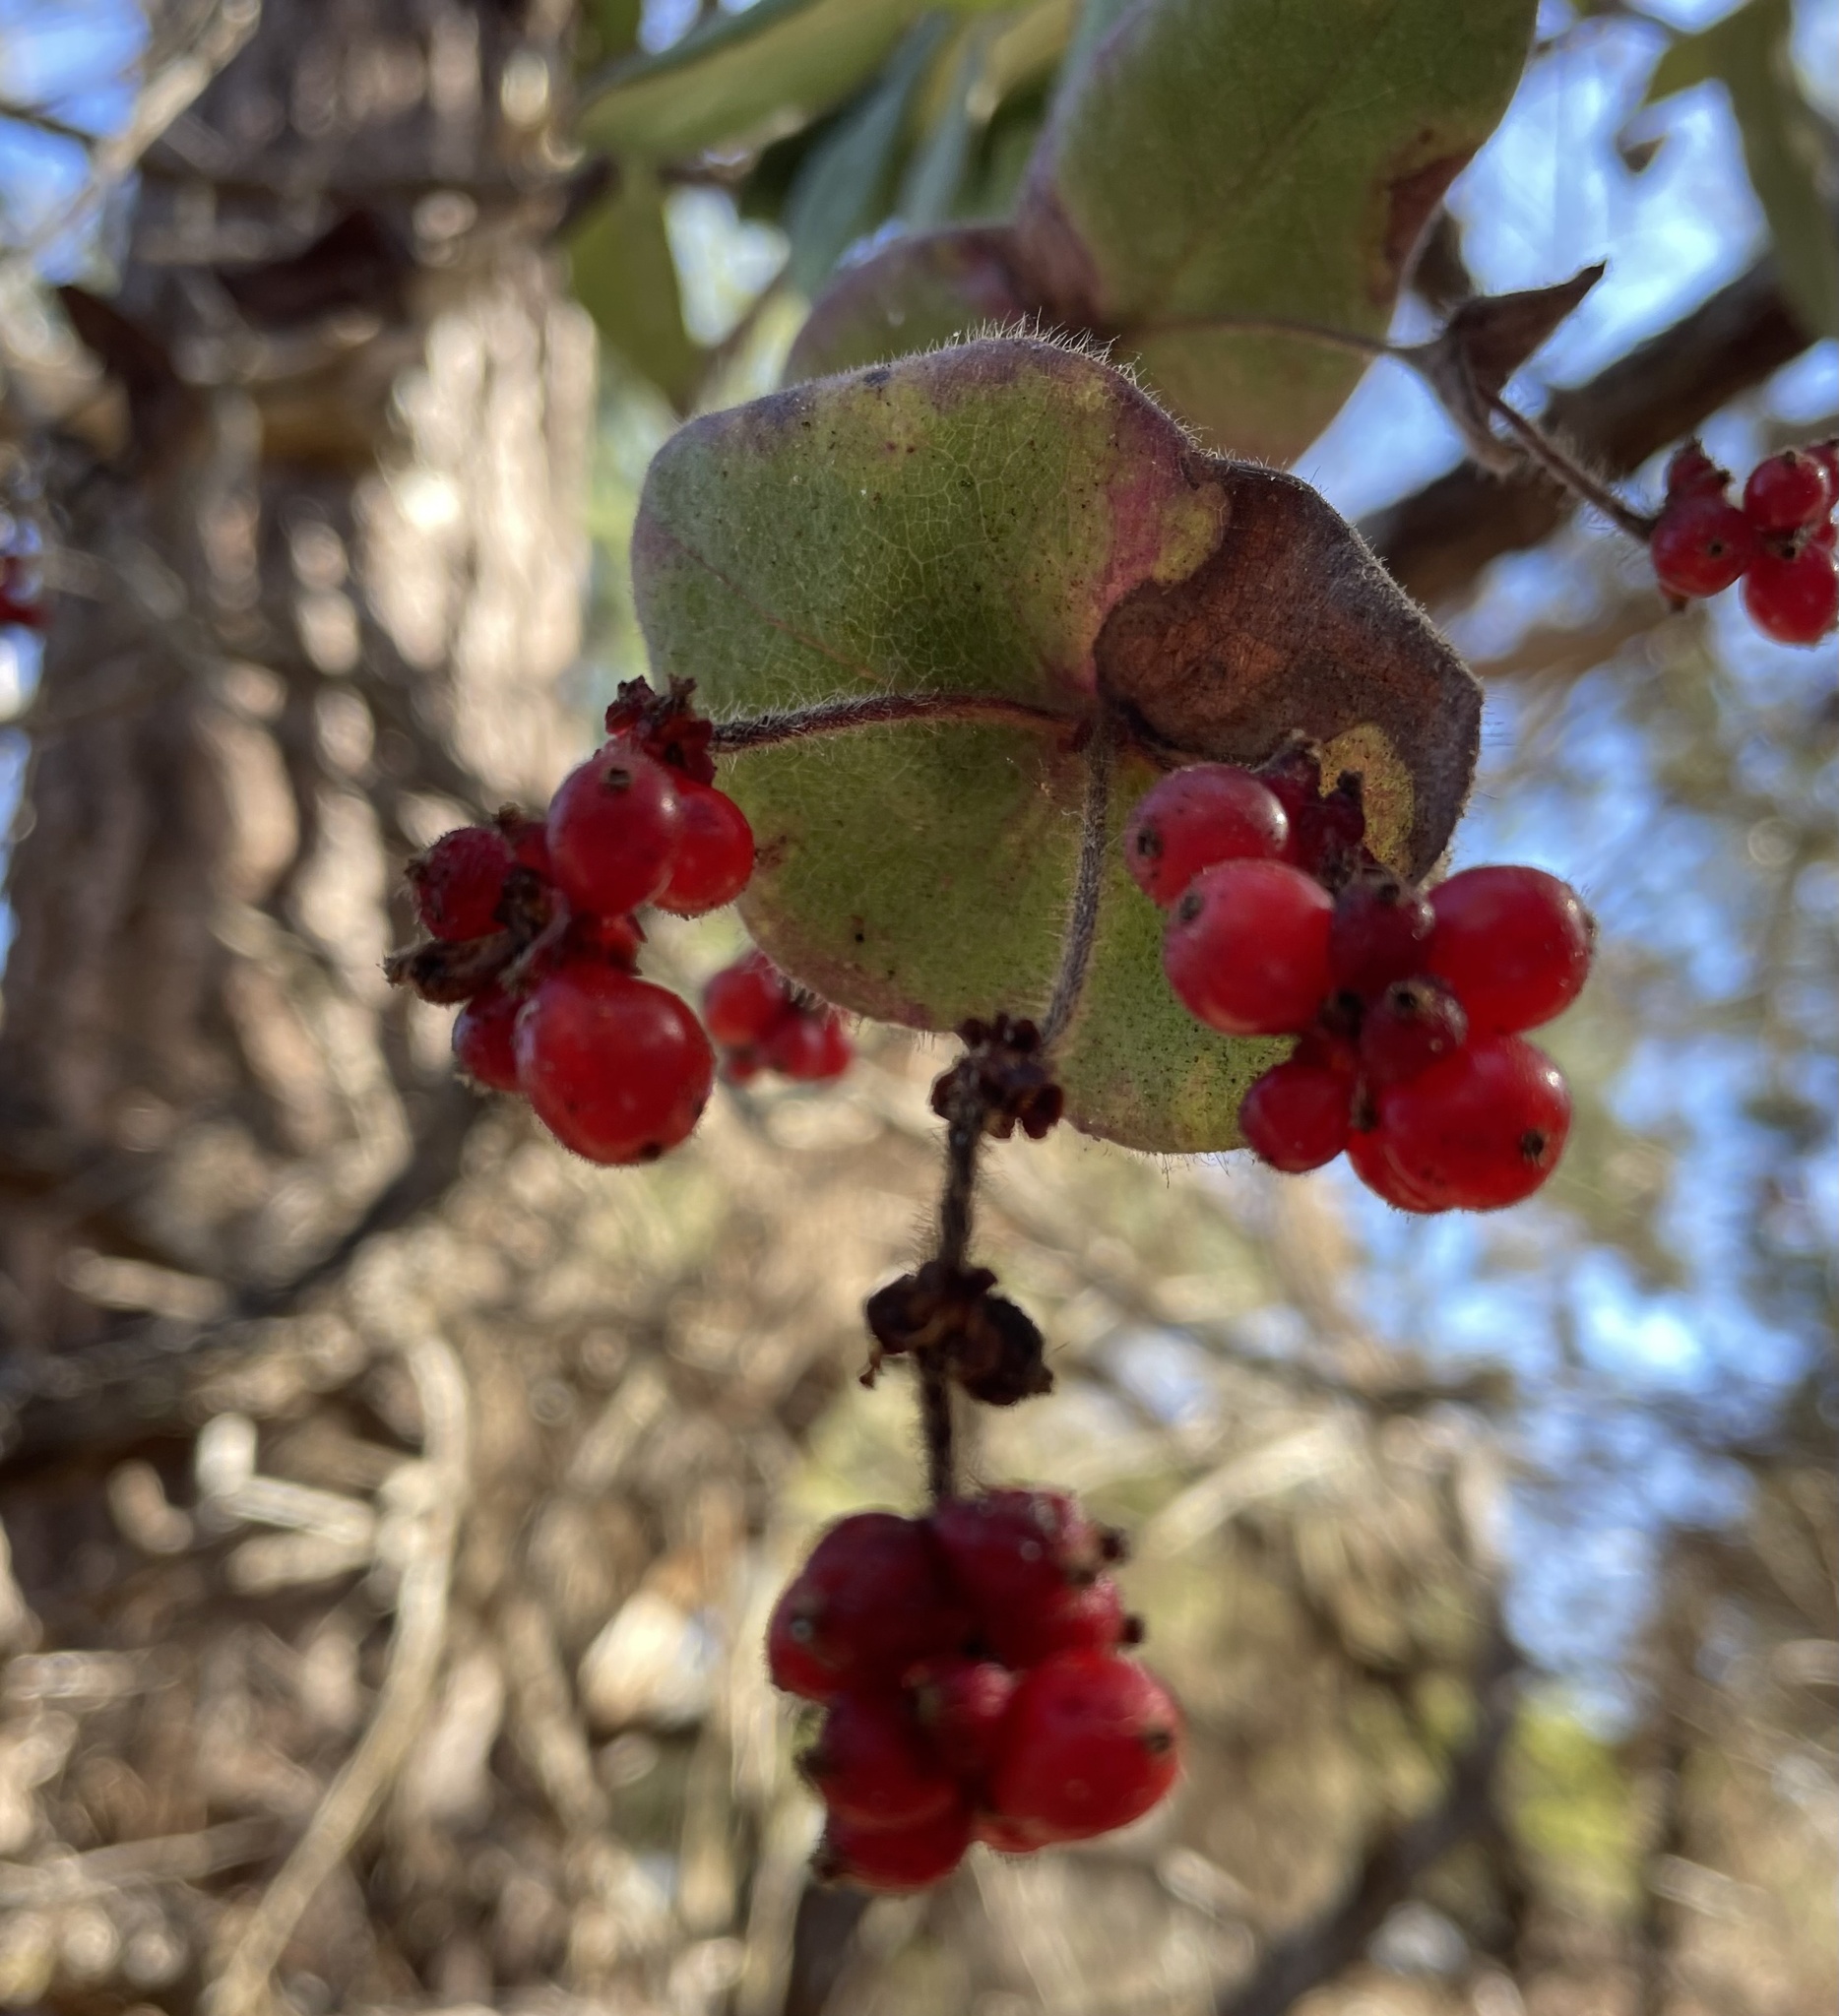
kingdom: Plantae
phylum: Tracheophyta
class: Magnoliopsida
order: Dipsacales
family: Caprifoliaceae
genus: Lonicera
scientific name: Lonicera hispidula
